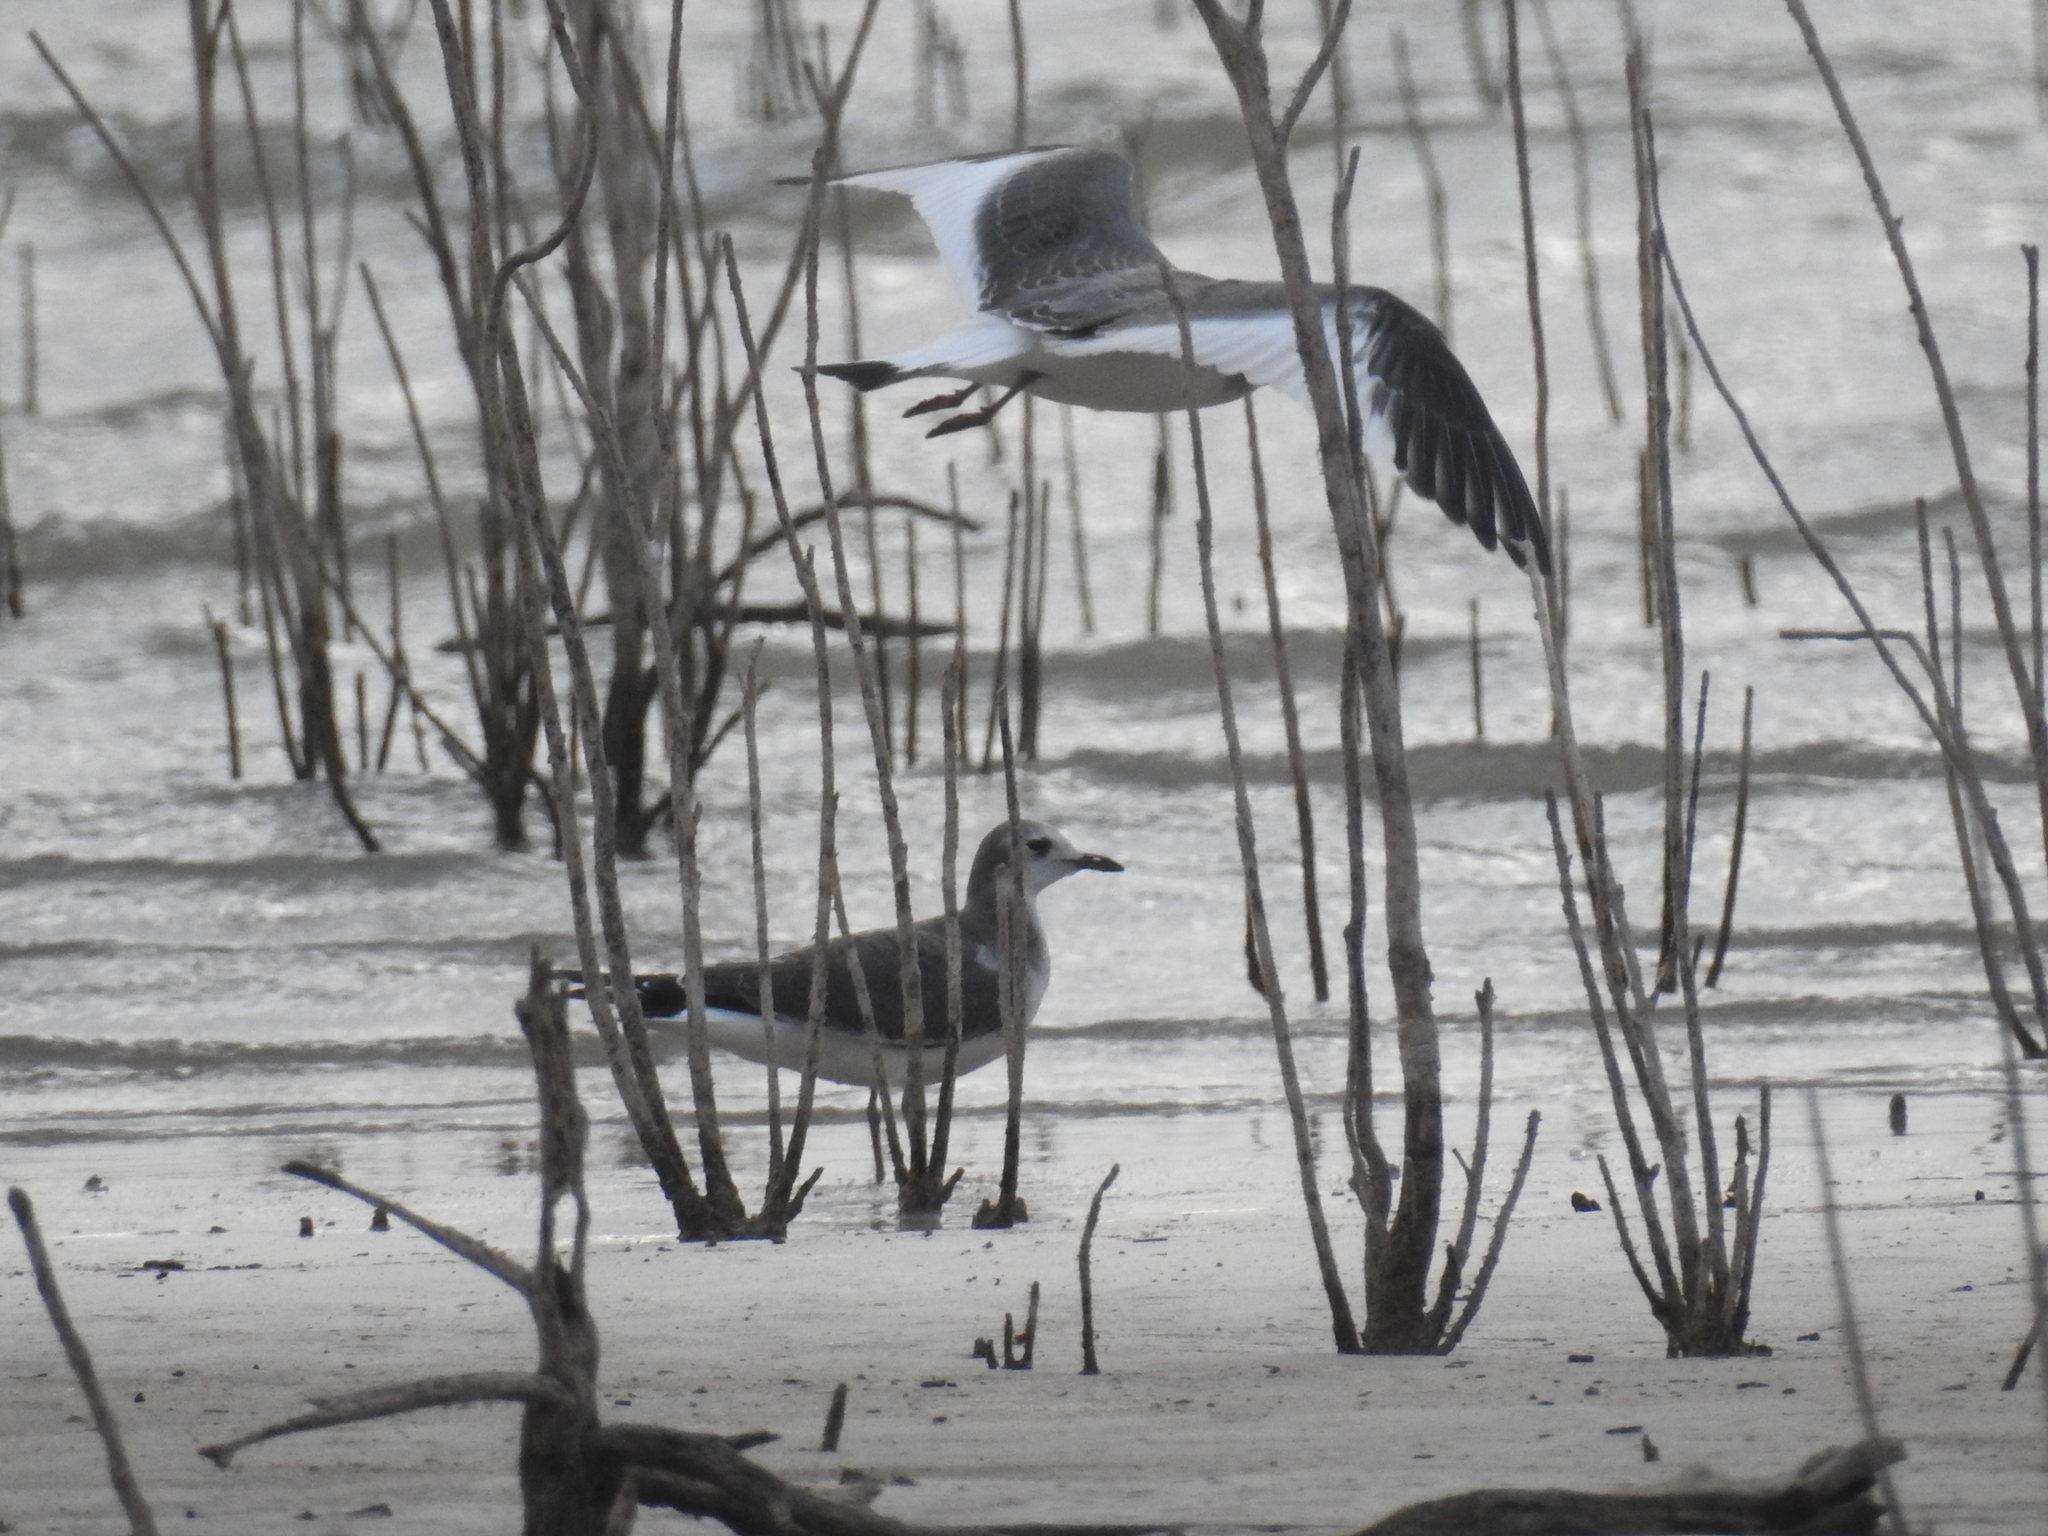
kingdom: Animalia
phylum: Chordata
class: Aves
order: Charadriiformes
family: Laridae
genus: Xema
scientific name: Xema sabini
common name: Sabine's gull
